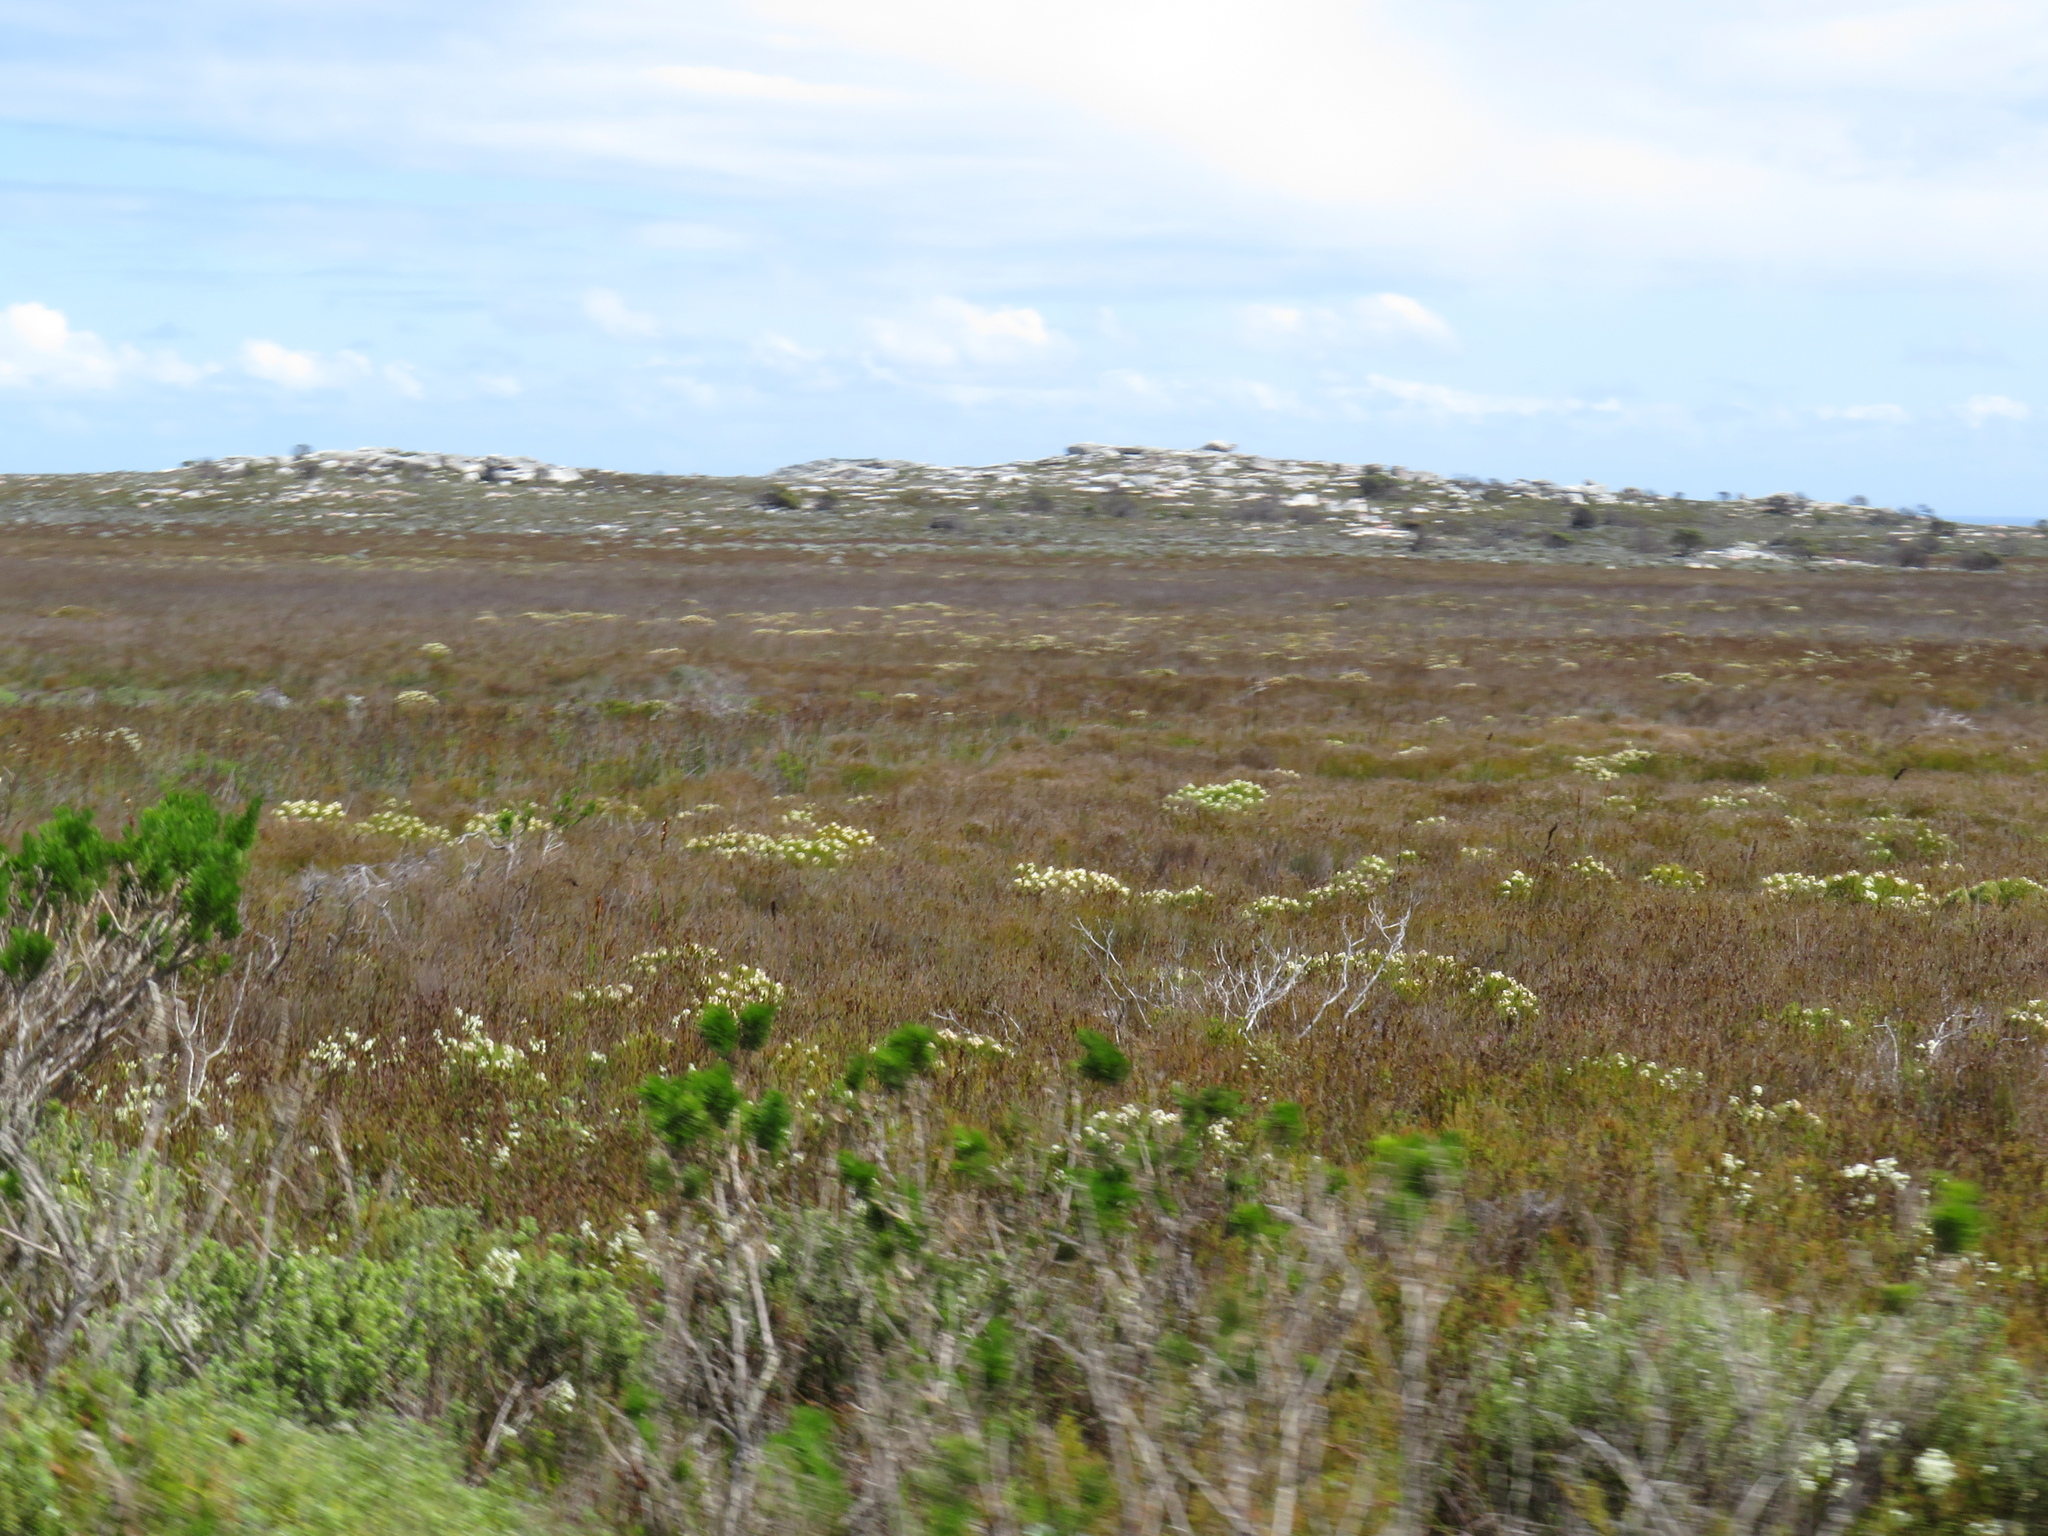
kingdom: Plantae
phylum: Tracheophyta
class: Magnoliopsida
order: Proteales
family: Proteaceae
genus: Serruria
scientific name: Serruria glomerata
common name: Cluster spiderhead
